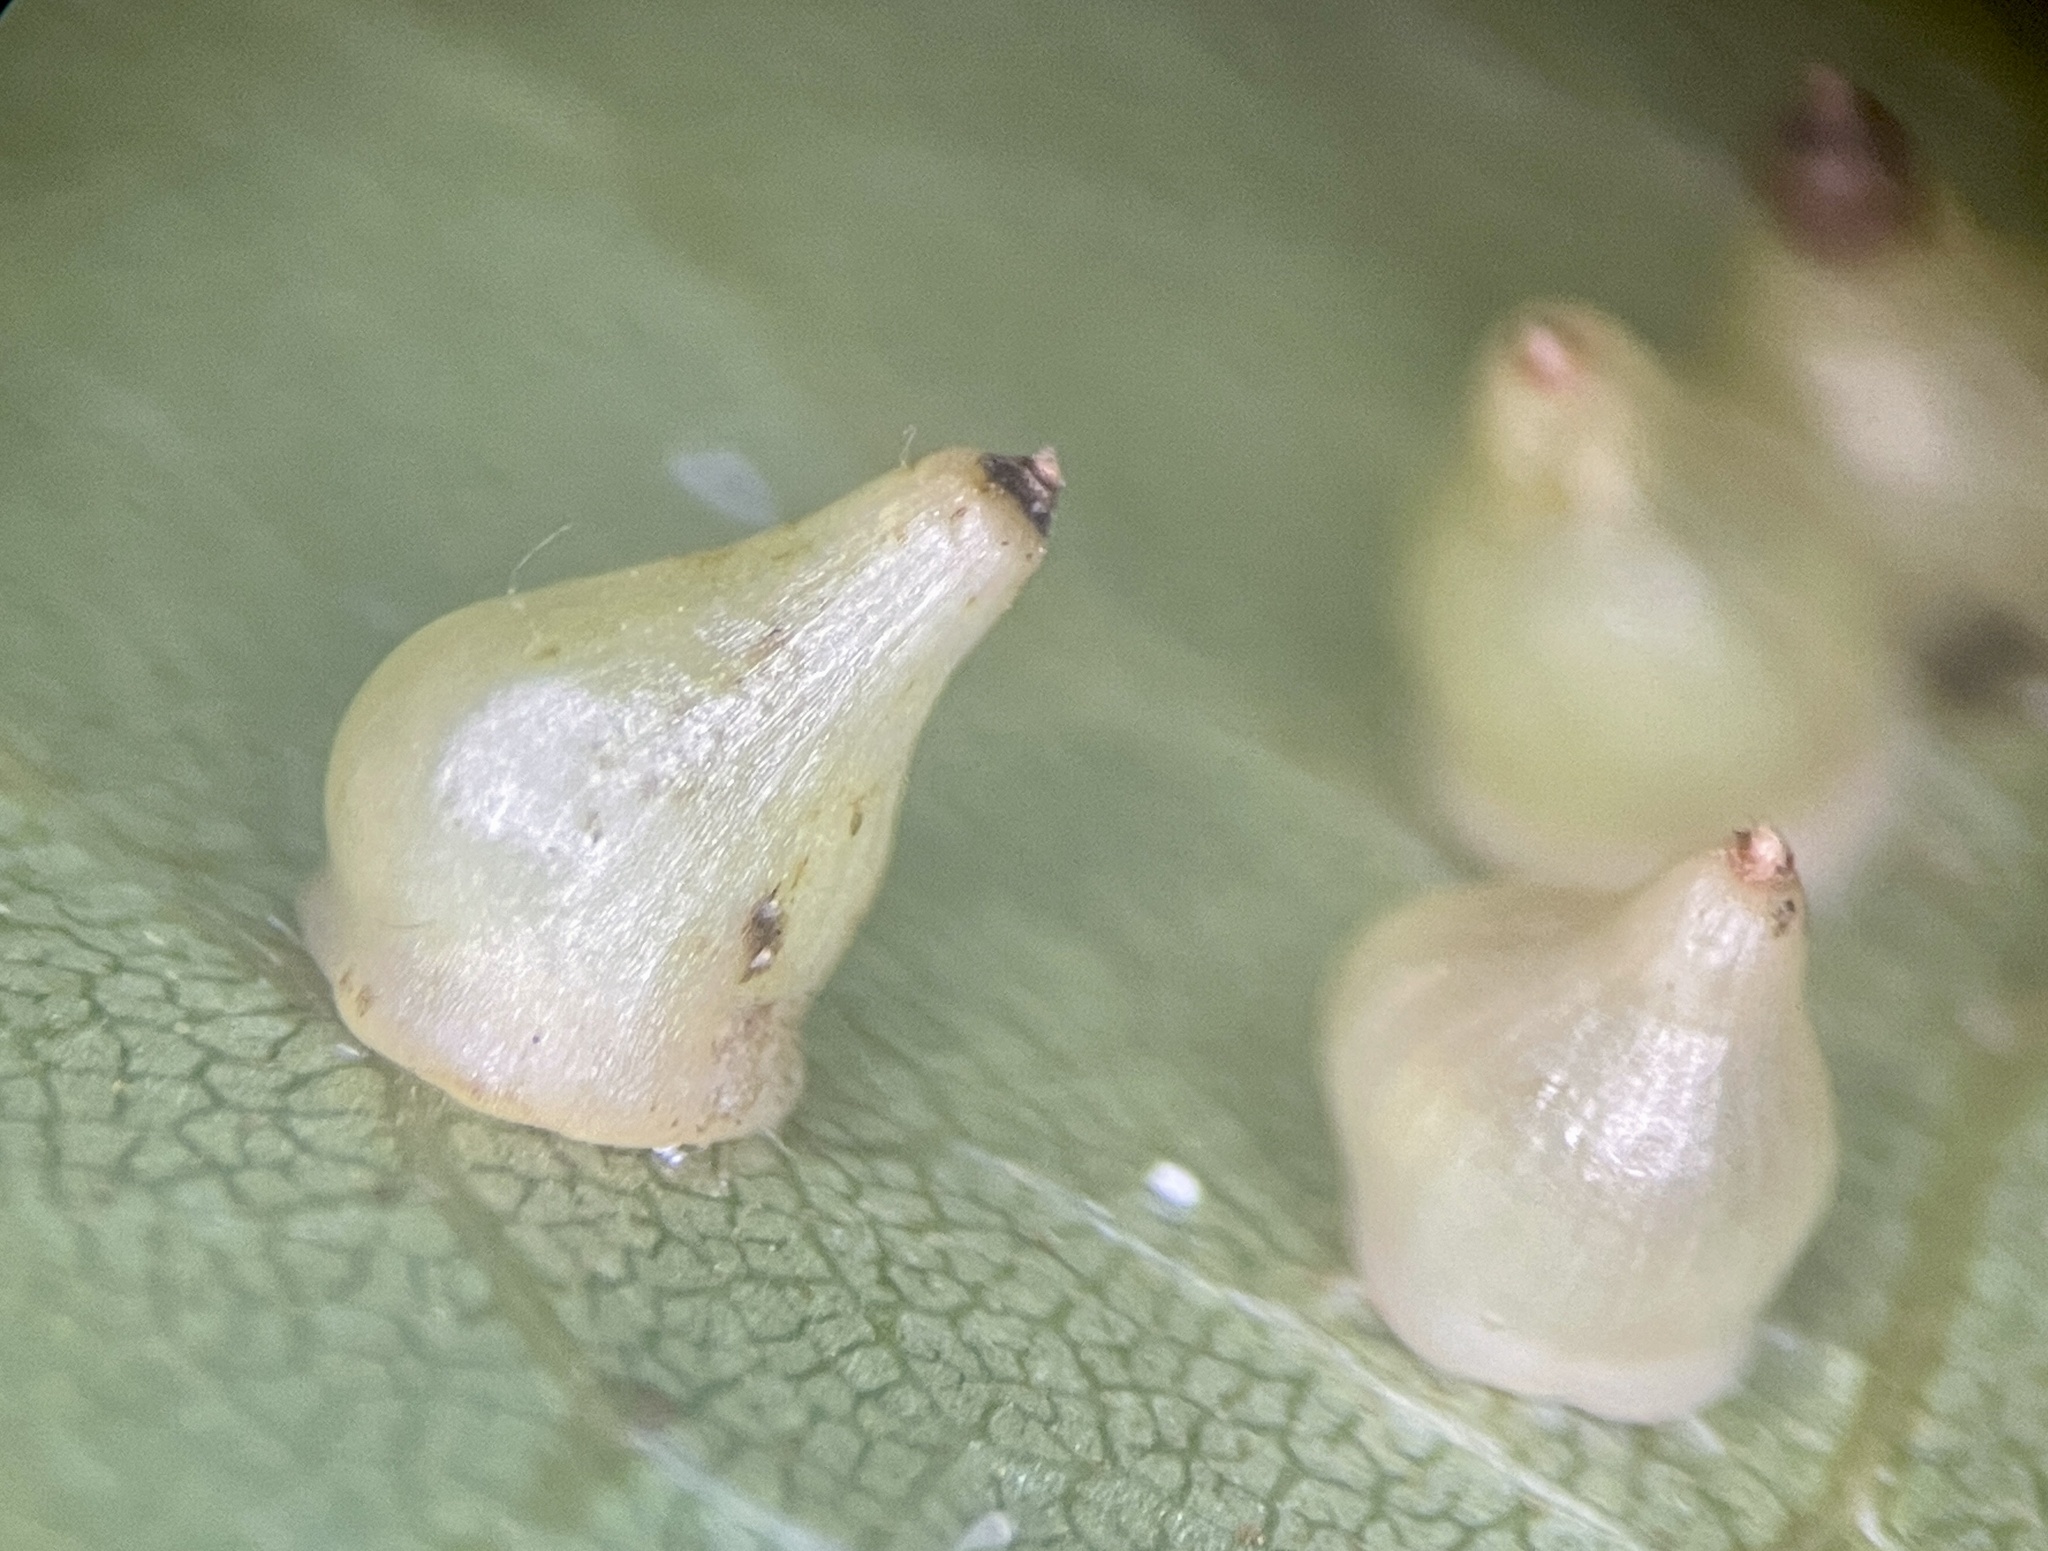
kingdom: Animalia
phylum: Arthropoda
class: Insecta
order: Diptera
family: Cecidomyiidae
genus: Caryomyia
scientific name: Caryomyia shmoo
